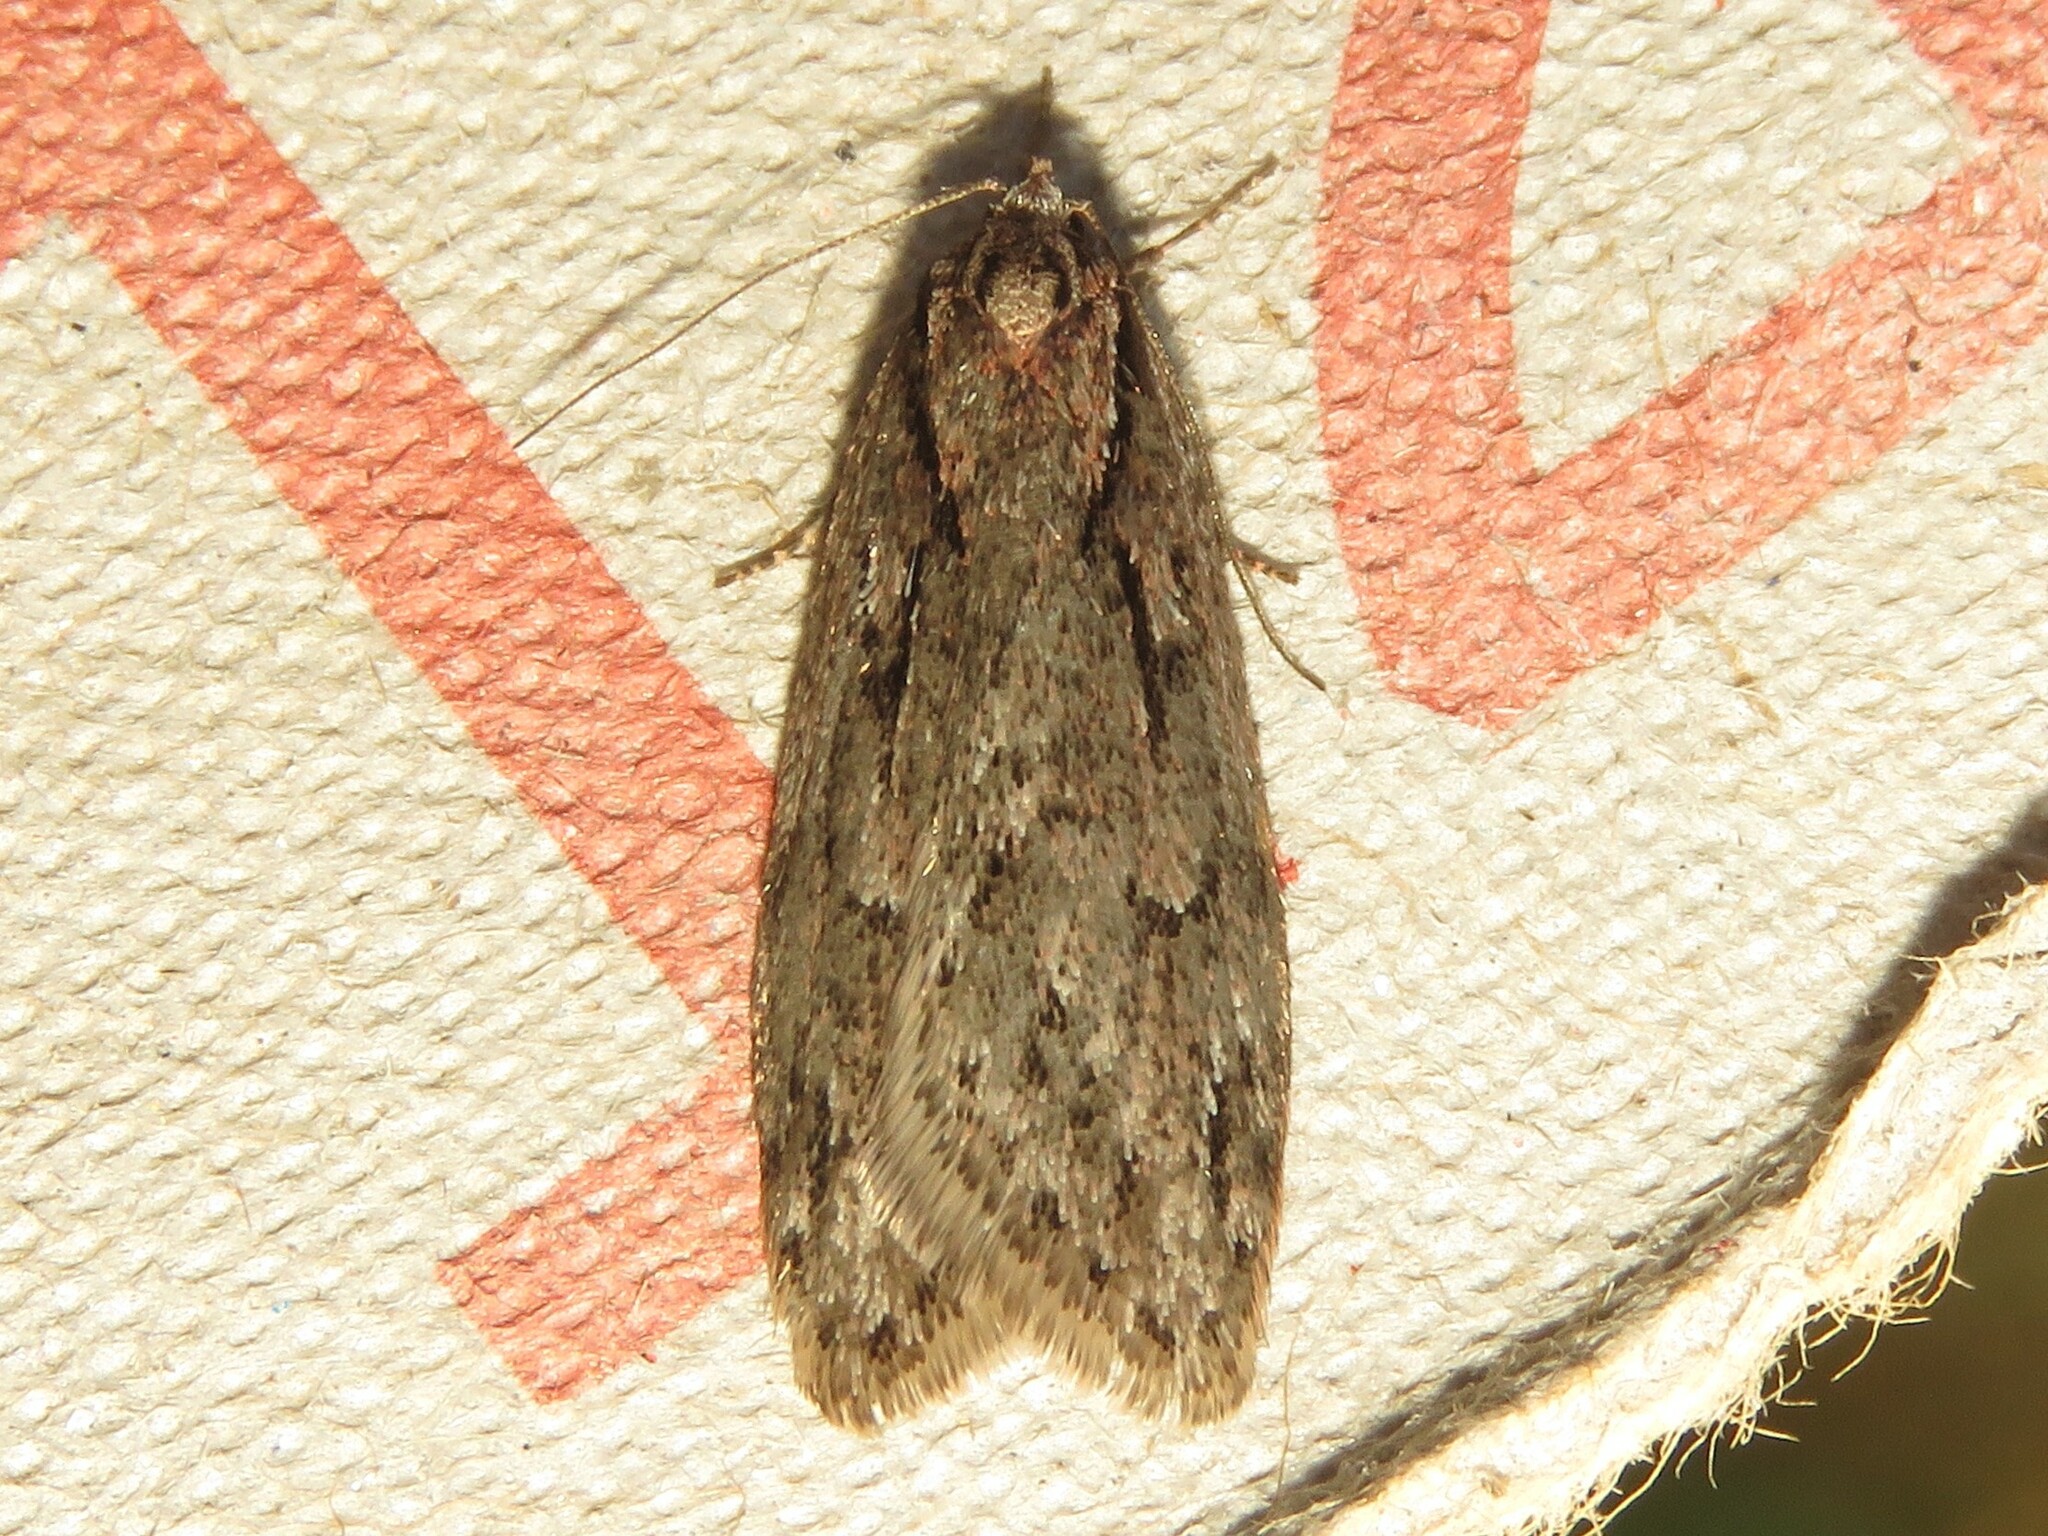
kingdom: Animalia
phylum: Arthropoda
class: Insecta
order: Lepidoptera
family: Depressariidae
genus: Semioscopis
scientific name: Semioscopis aurorella
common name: Aurora flatbody moth
